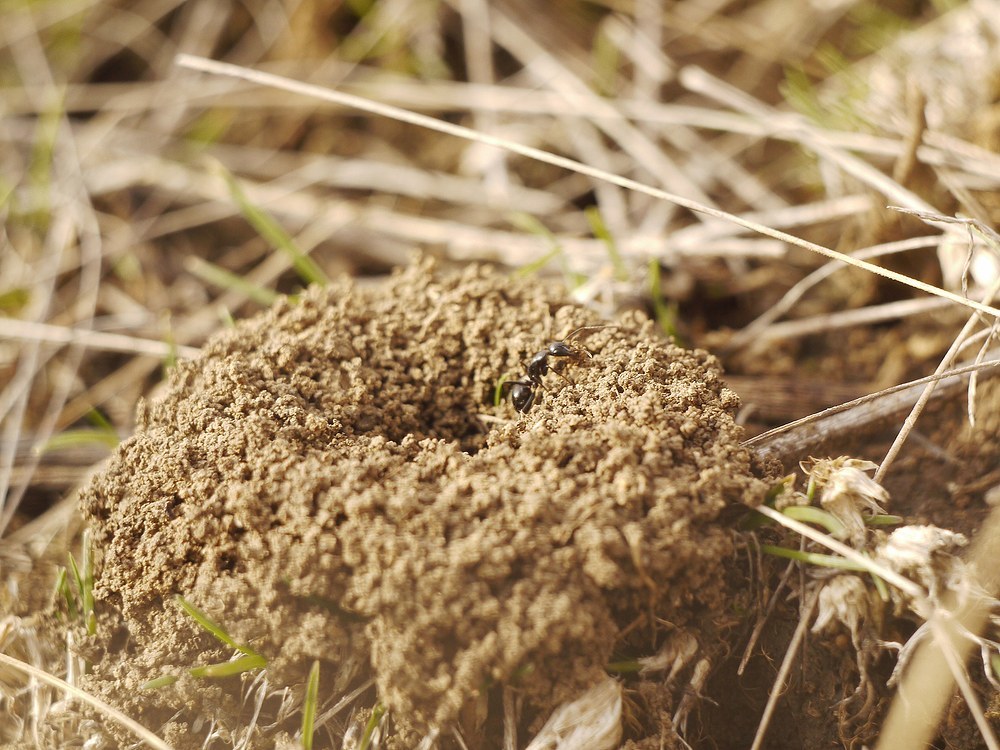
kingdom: Animalia
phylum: Arthropoda
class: Insecta
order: Hymenoptera
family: Formicidae
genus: Camponotus
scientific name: Camponotus aethiops
